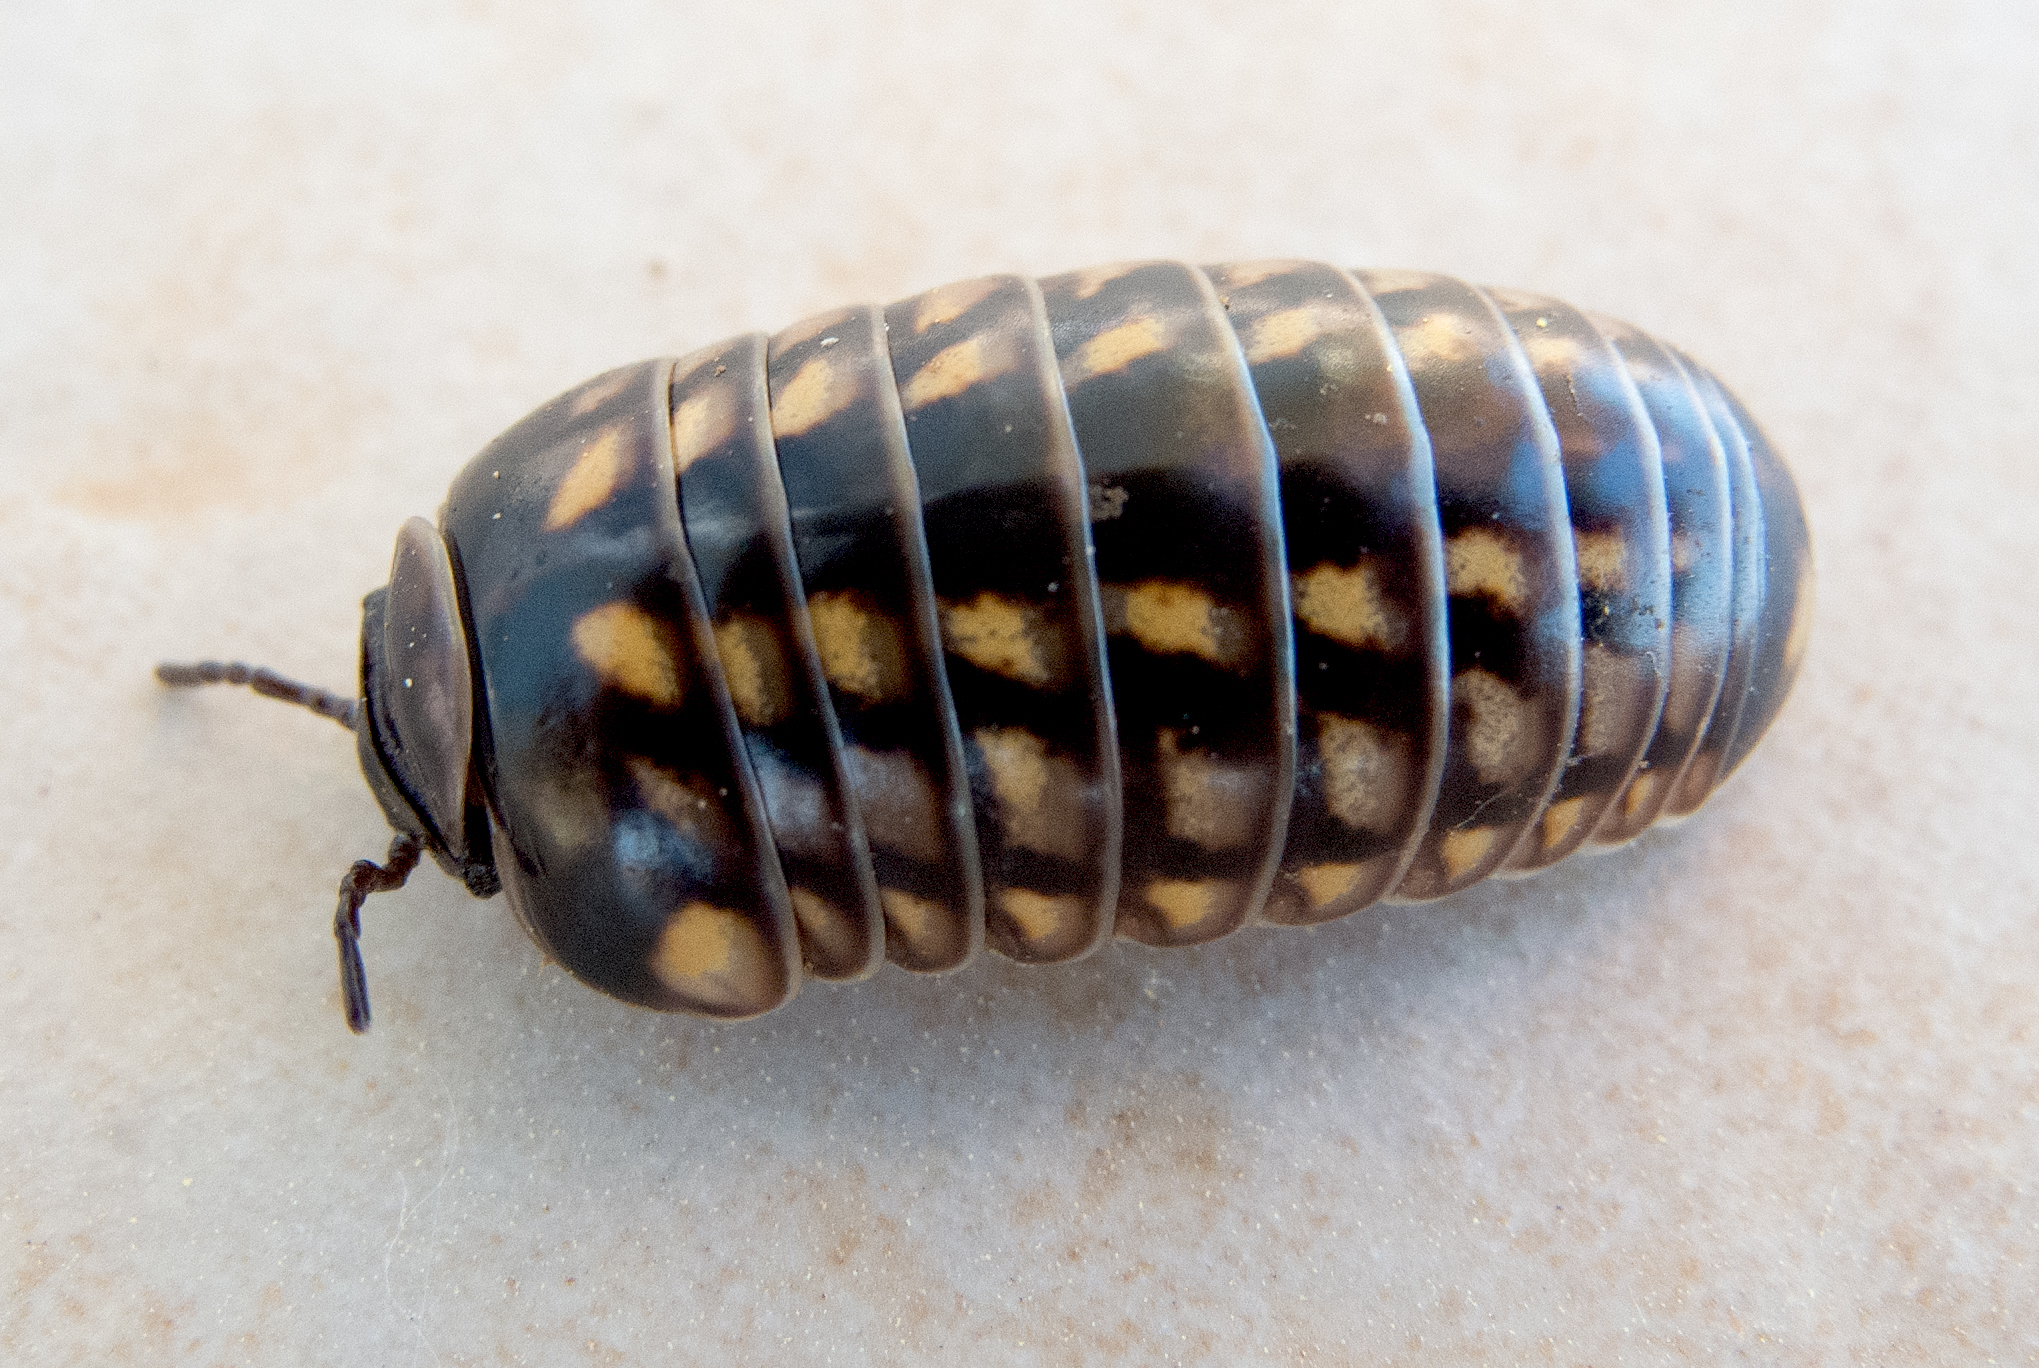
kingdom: Animalia
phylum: Arthropoda
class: Diplopoda
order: Glomerida
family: Glomeridae
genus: Glomeris
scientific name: Glomeris hexasticha
